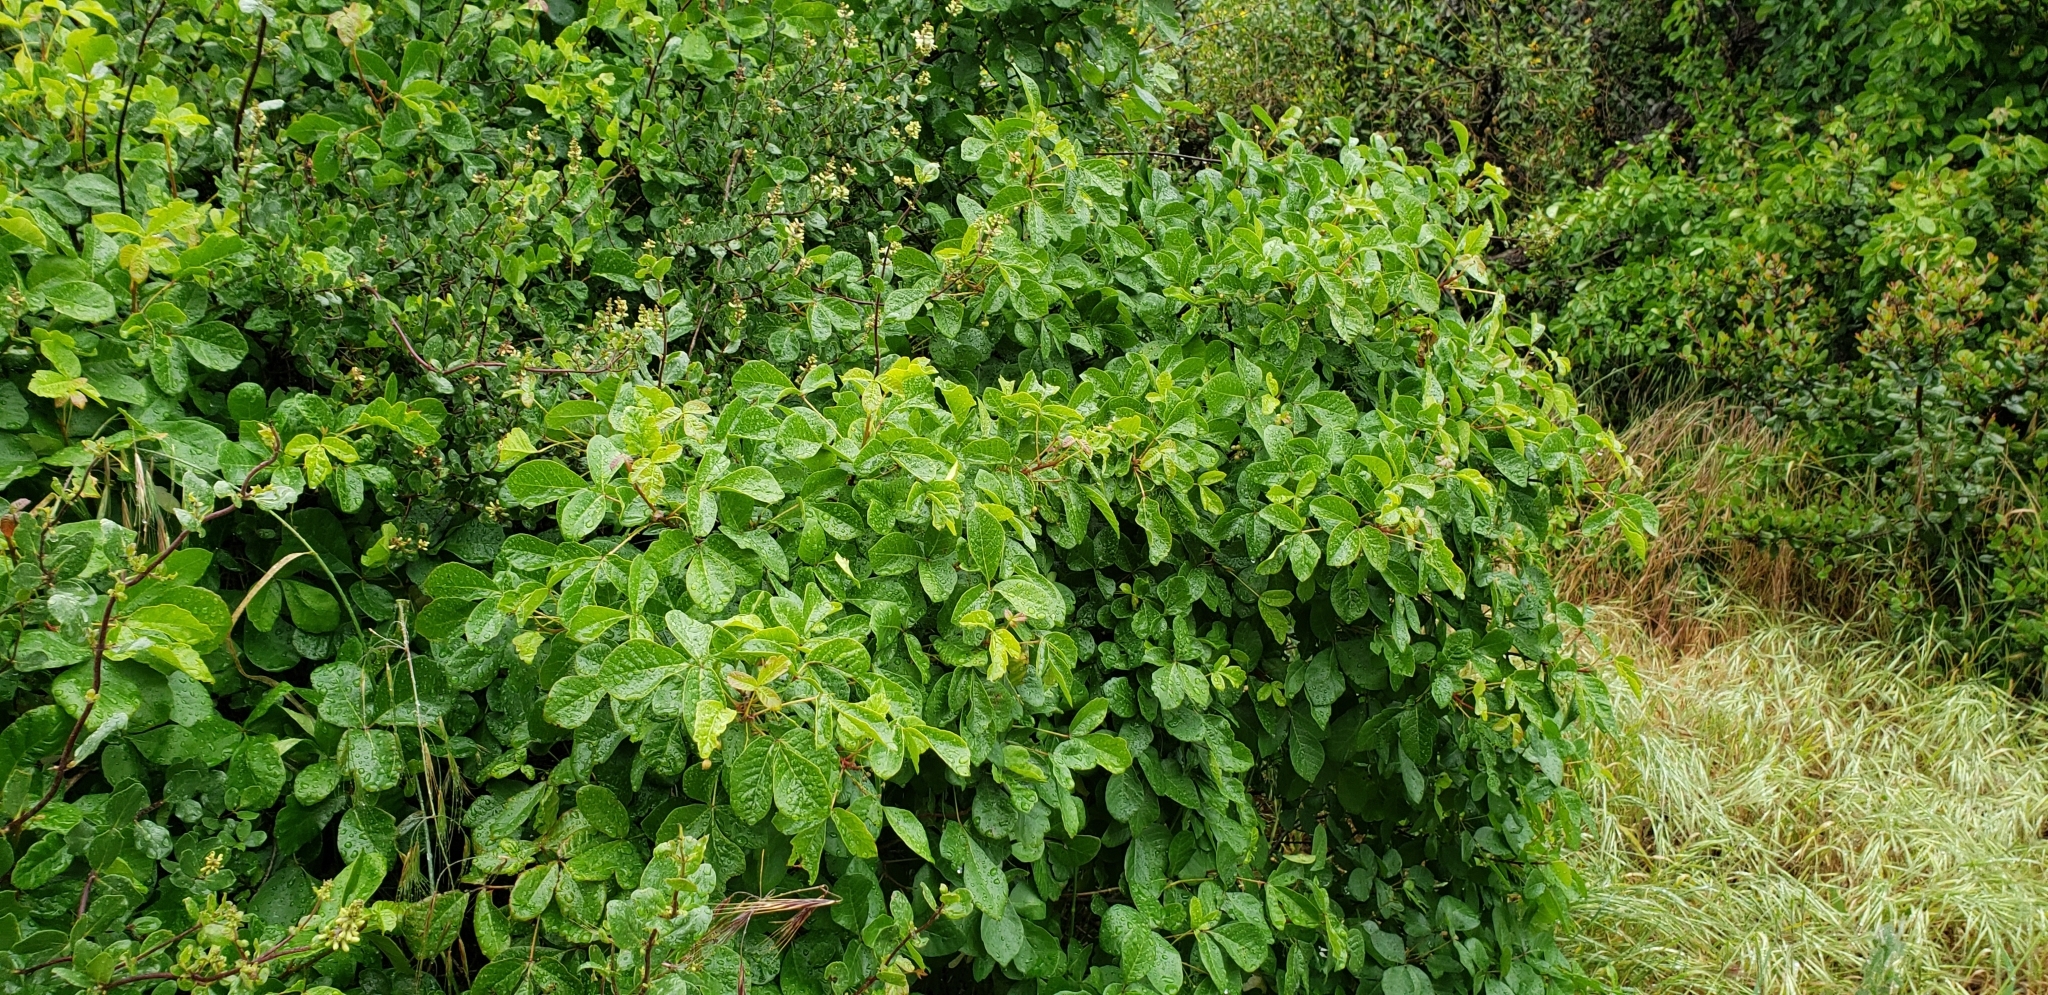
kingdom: Plantae
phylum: Tracheophyta
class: Magnoliopsida
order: Sapindales
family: Anacardiaceae
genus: Toxicodendron
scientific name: Toxicodendron diversilobum
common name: Pacific poison-oak
